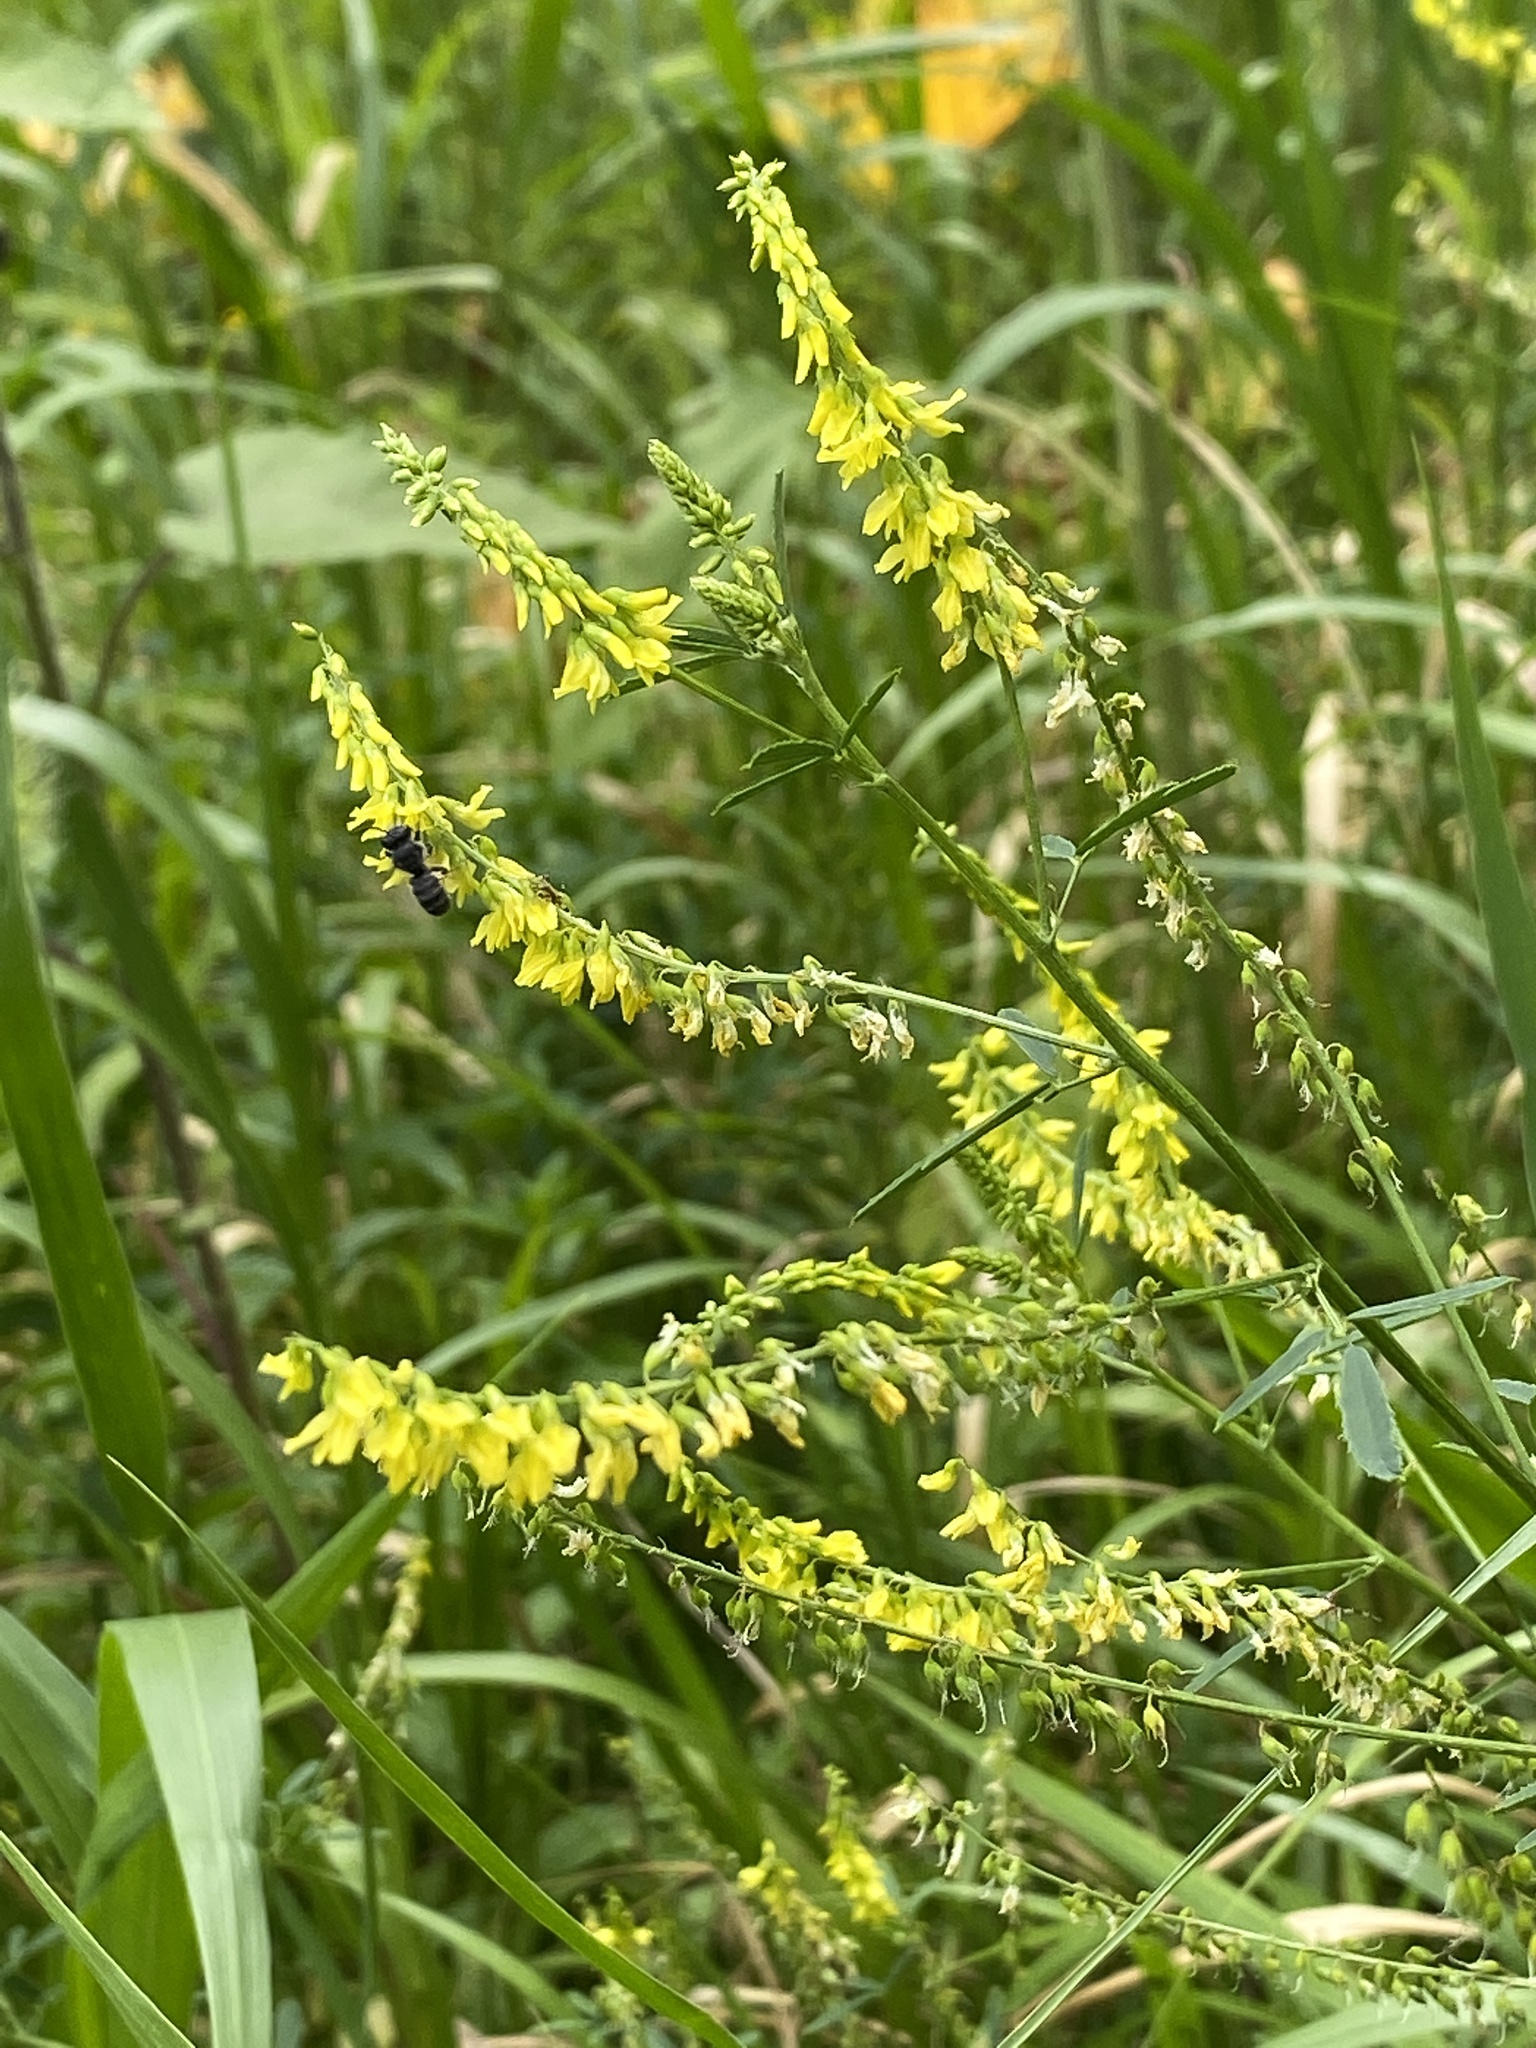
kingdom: Plantae
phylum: Tracheophyta
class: Magnoliopsida
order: Fabales
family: Fabaceae
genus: Melilotus
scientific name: Melilotus officinalis
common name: Sweetclover
